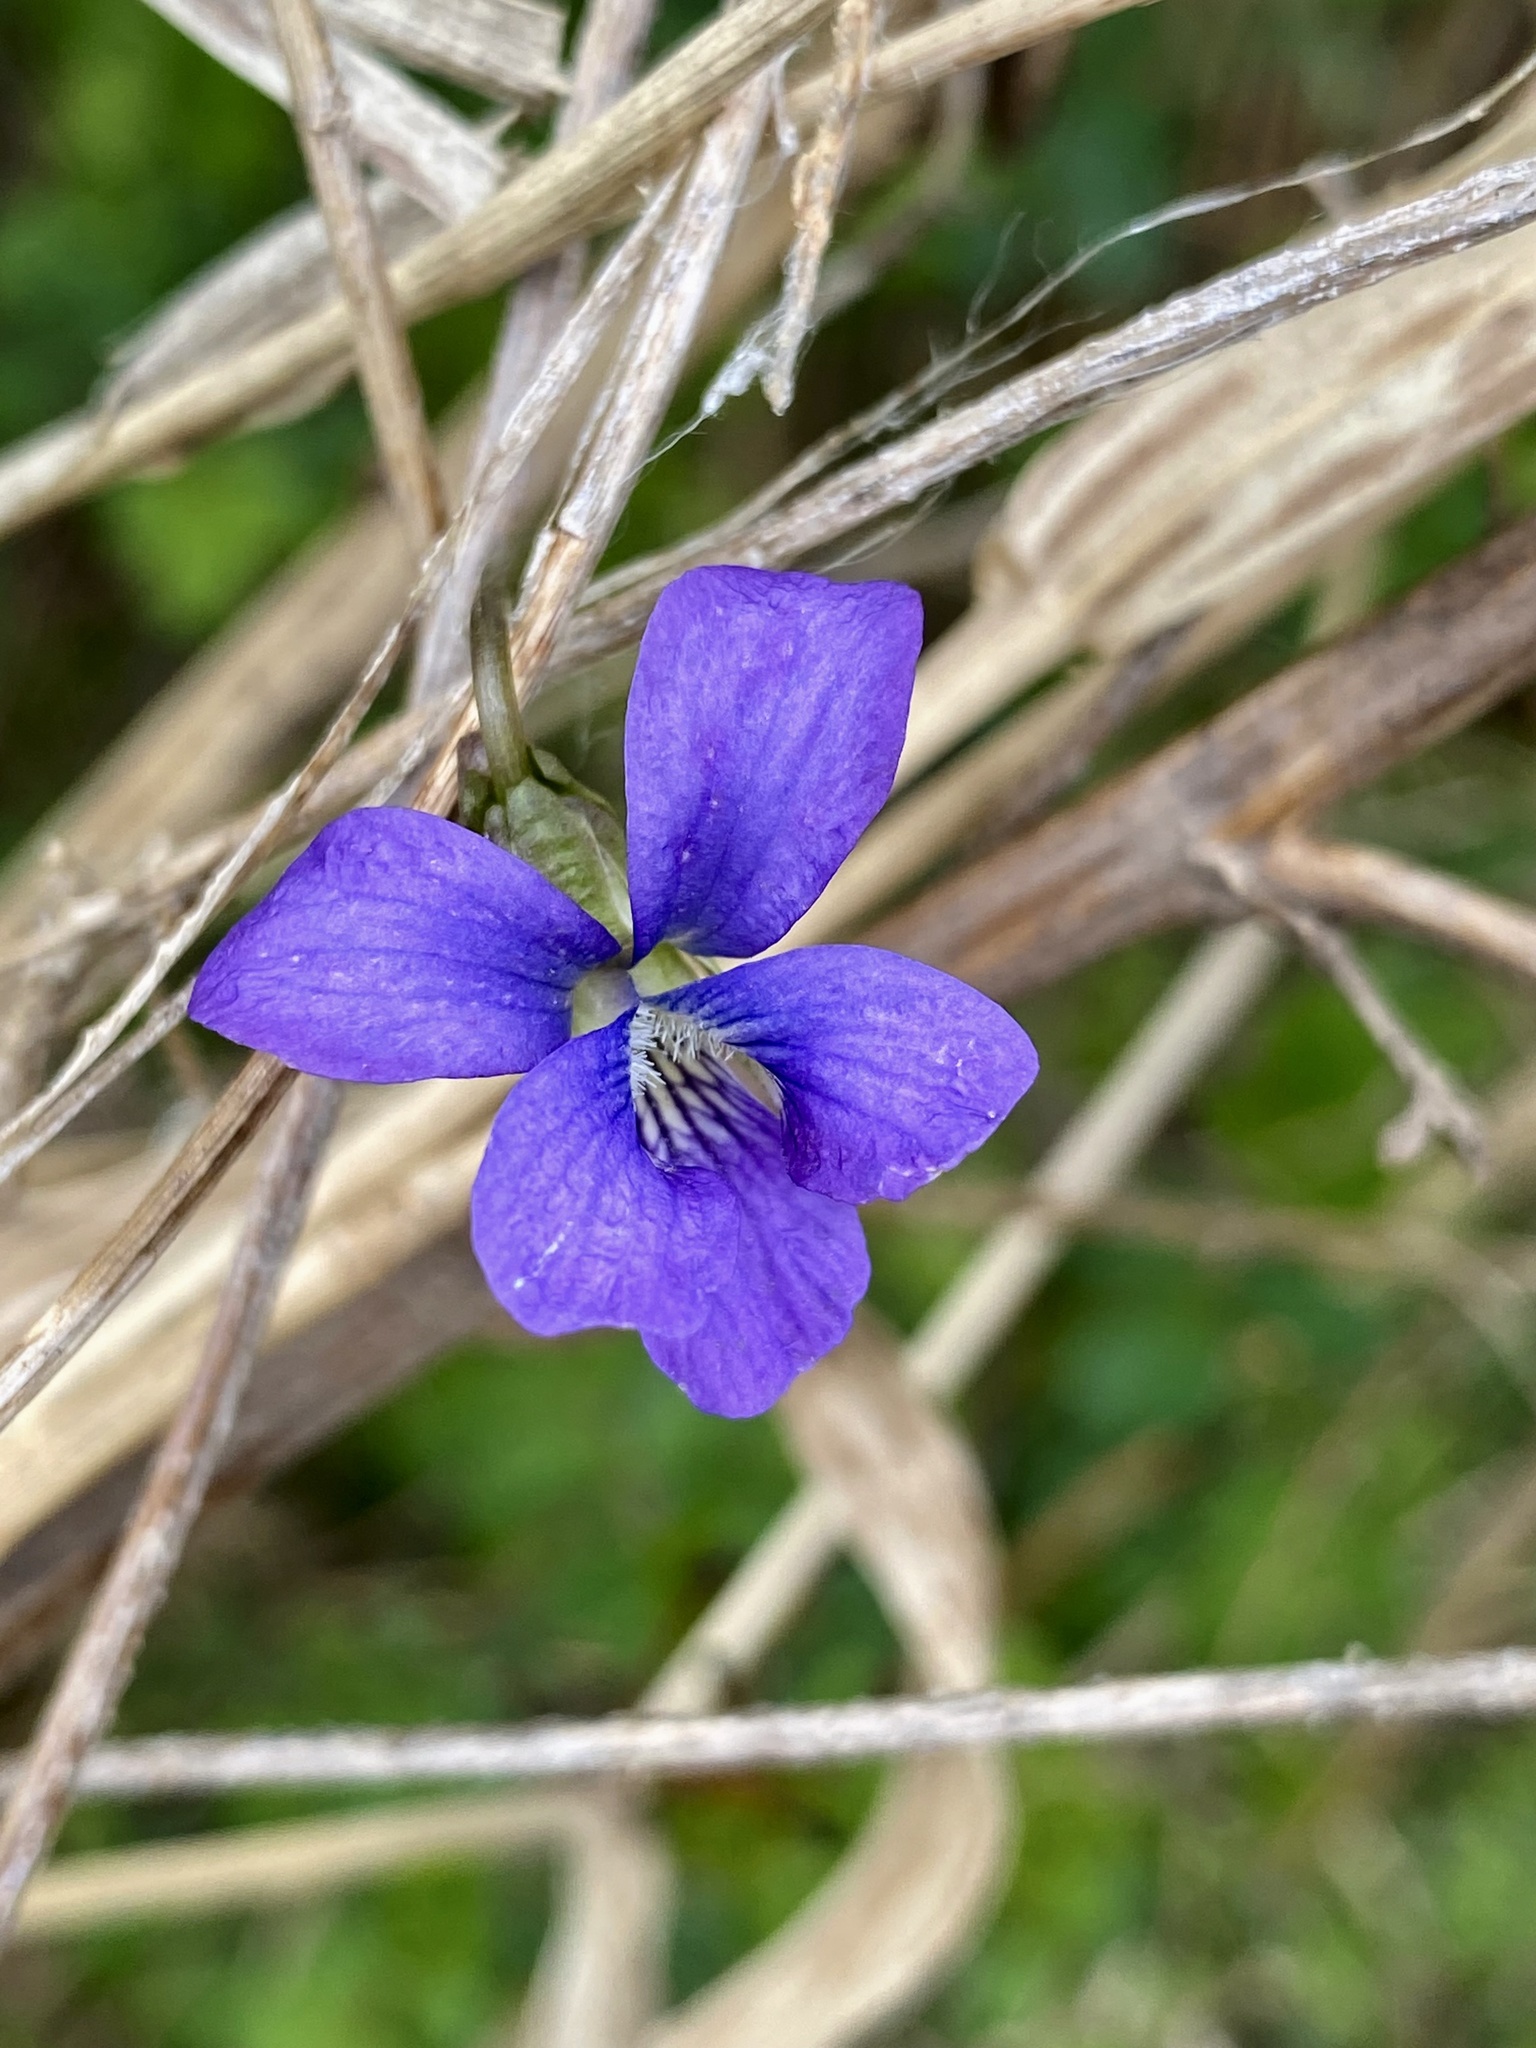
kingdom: Plantae
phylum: Tracheophyta
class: Magnoliopsida
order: Malpighiales
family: Violaceae
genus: Viola
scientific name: Viola sororia
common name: Dooryard violet
